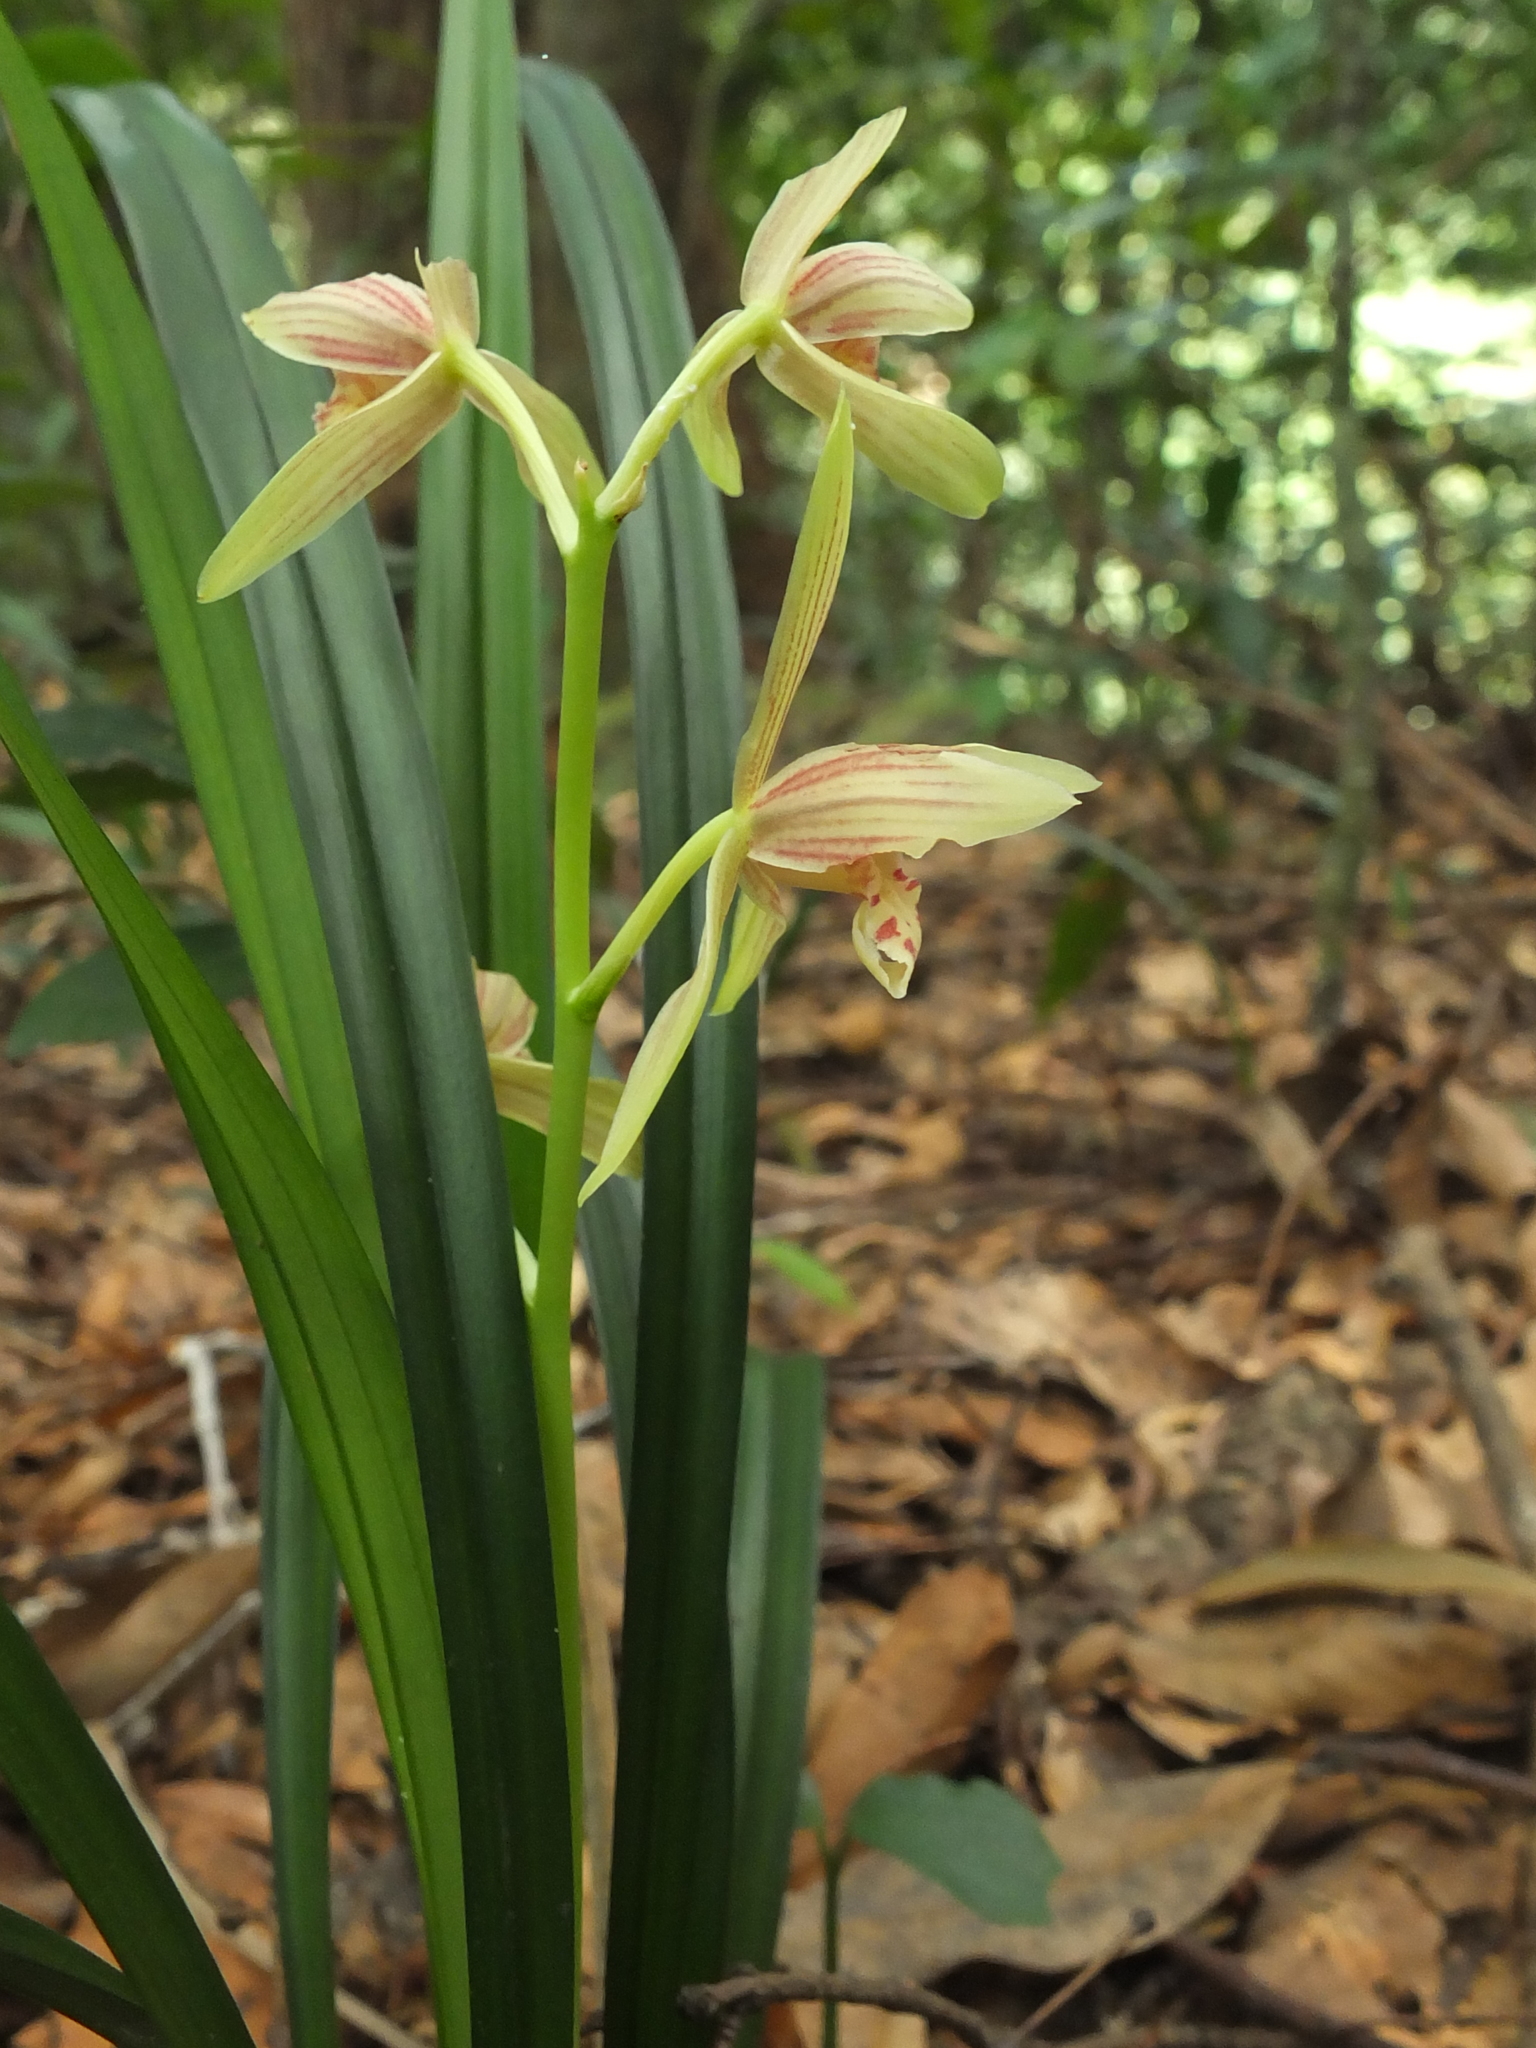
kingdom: Plantae
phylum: Tracheophyta
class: Liliopsida
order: Asparagales
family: Orchidaceae
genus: Cymbidium
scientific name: Cymbidium ensifolium
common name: Fukien-orchid
